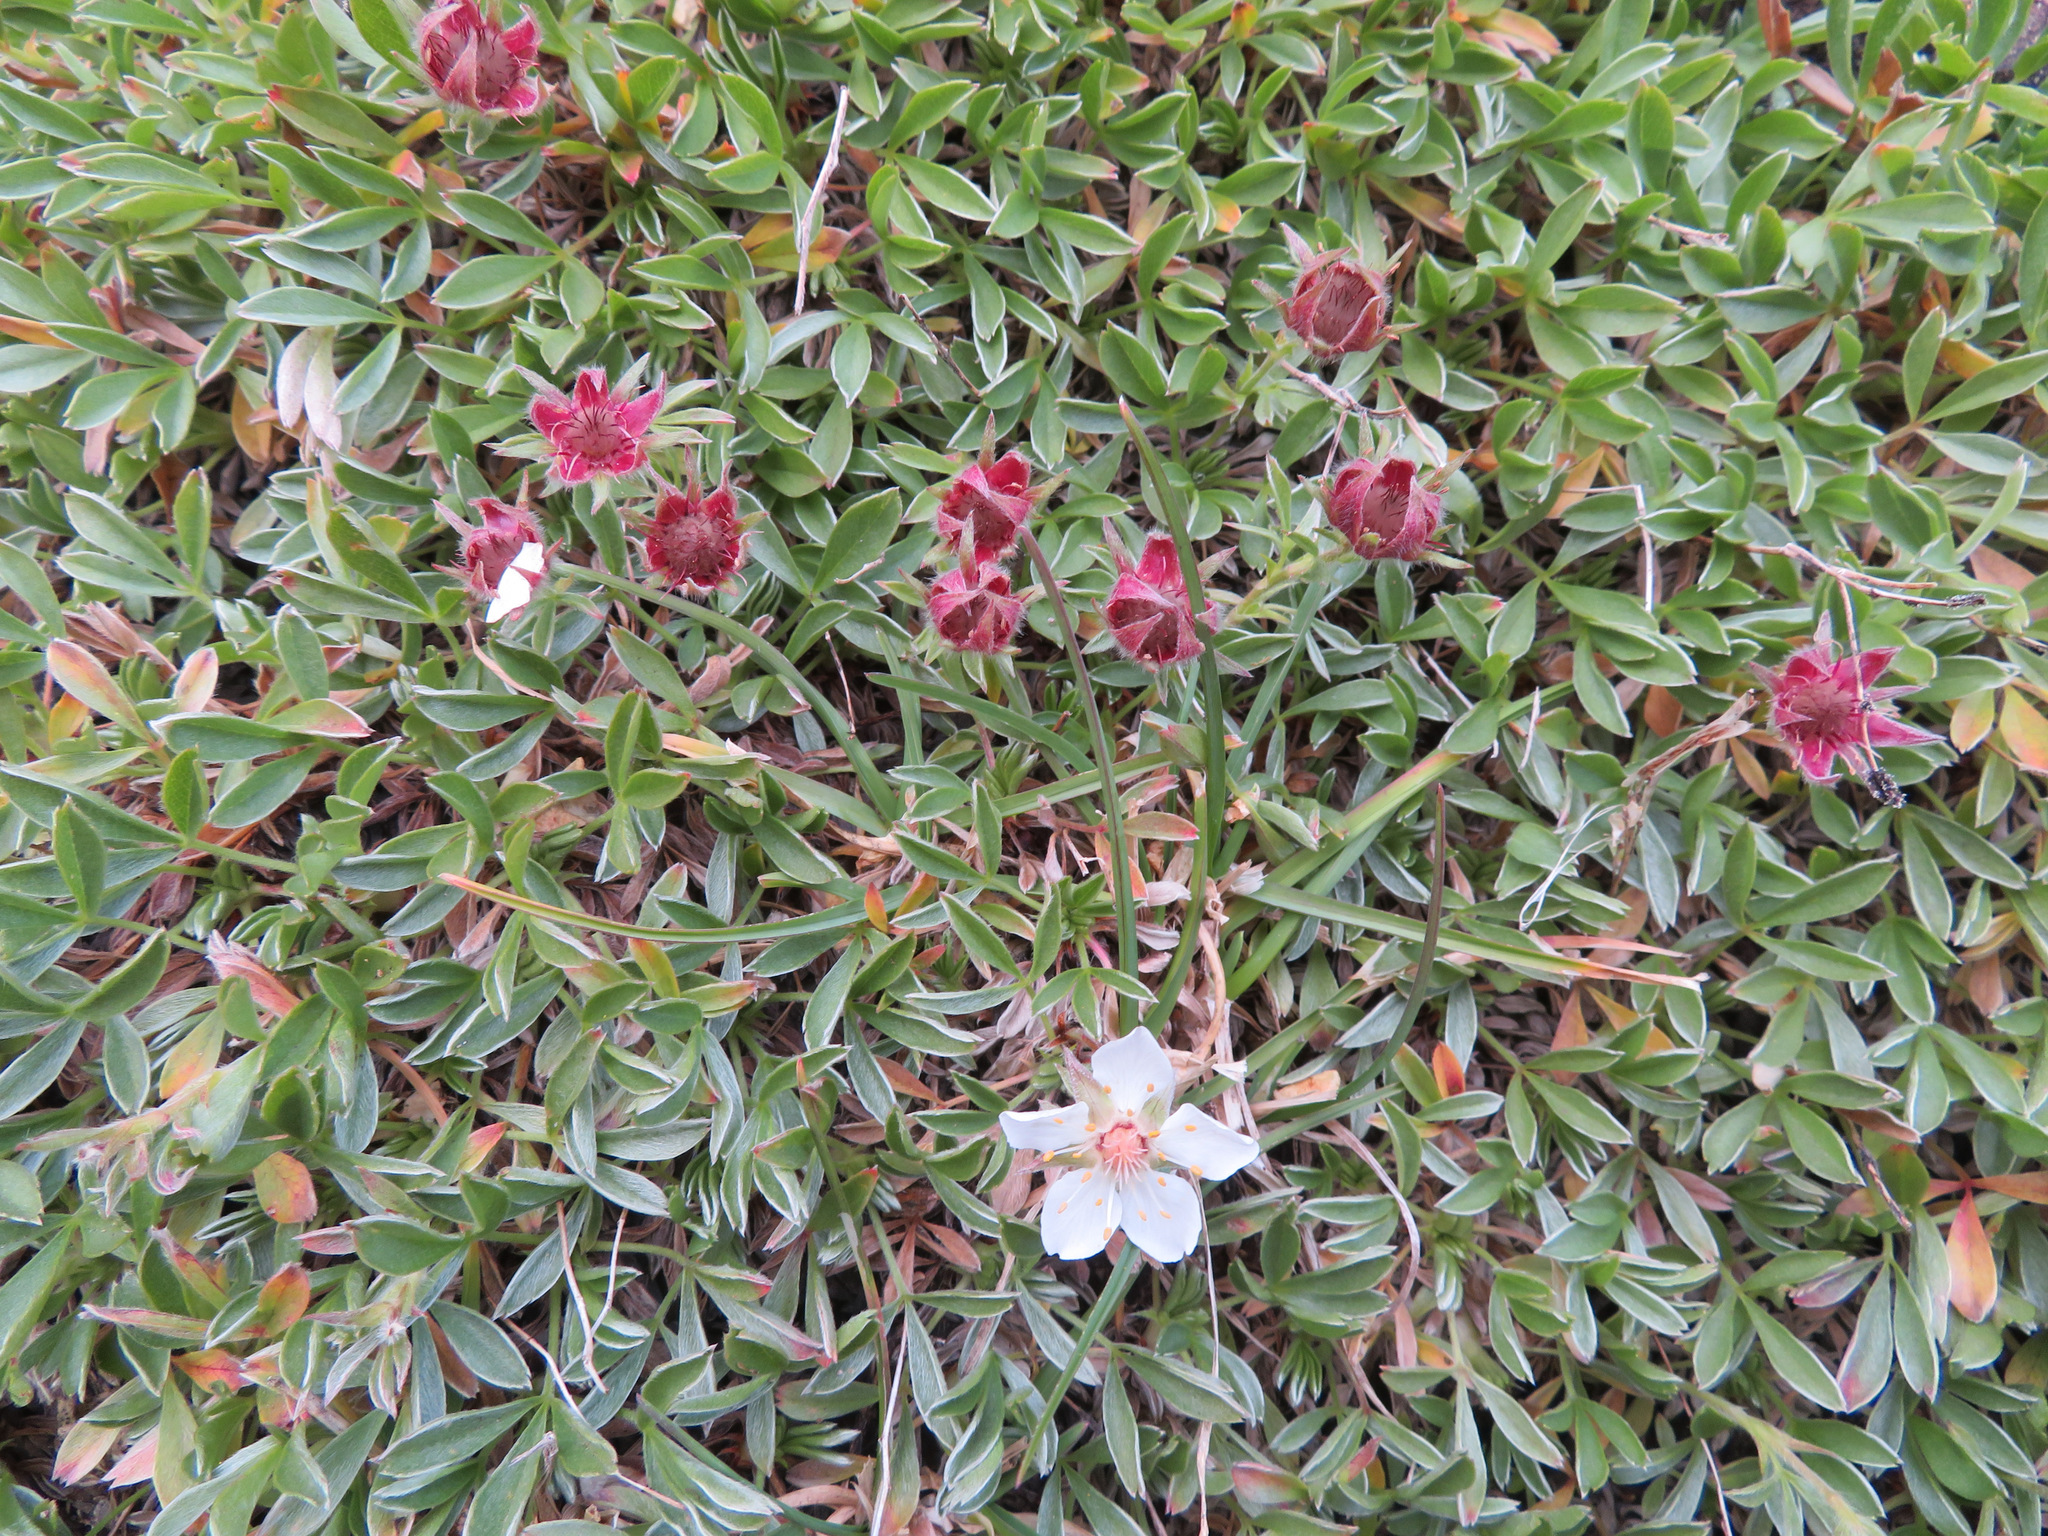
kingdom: Plantae
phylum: Tracheophyta
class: Magnoliopsida
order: Rosales
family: Rosaceae
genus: Potentilla
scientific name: Potentilla nitida
